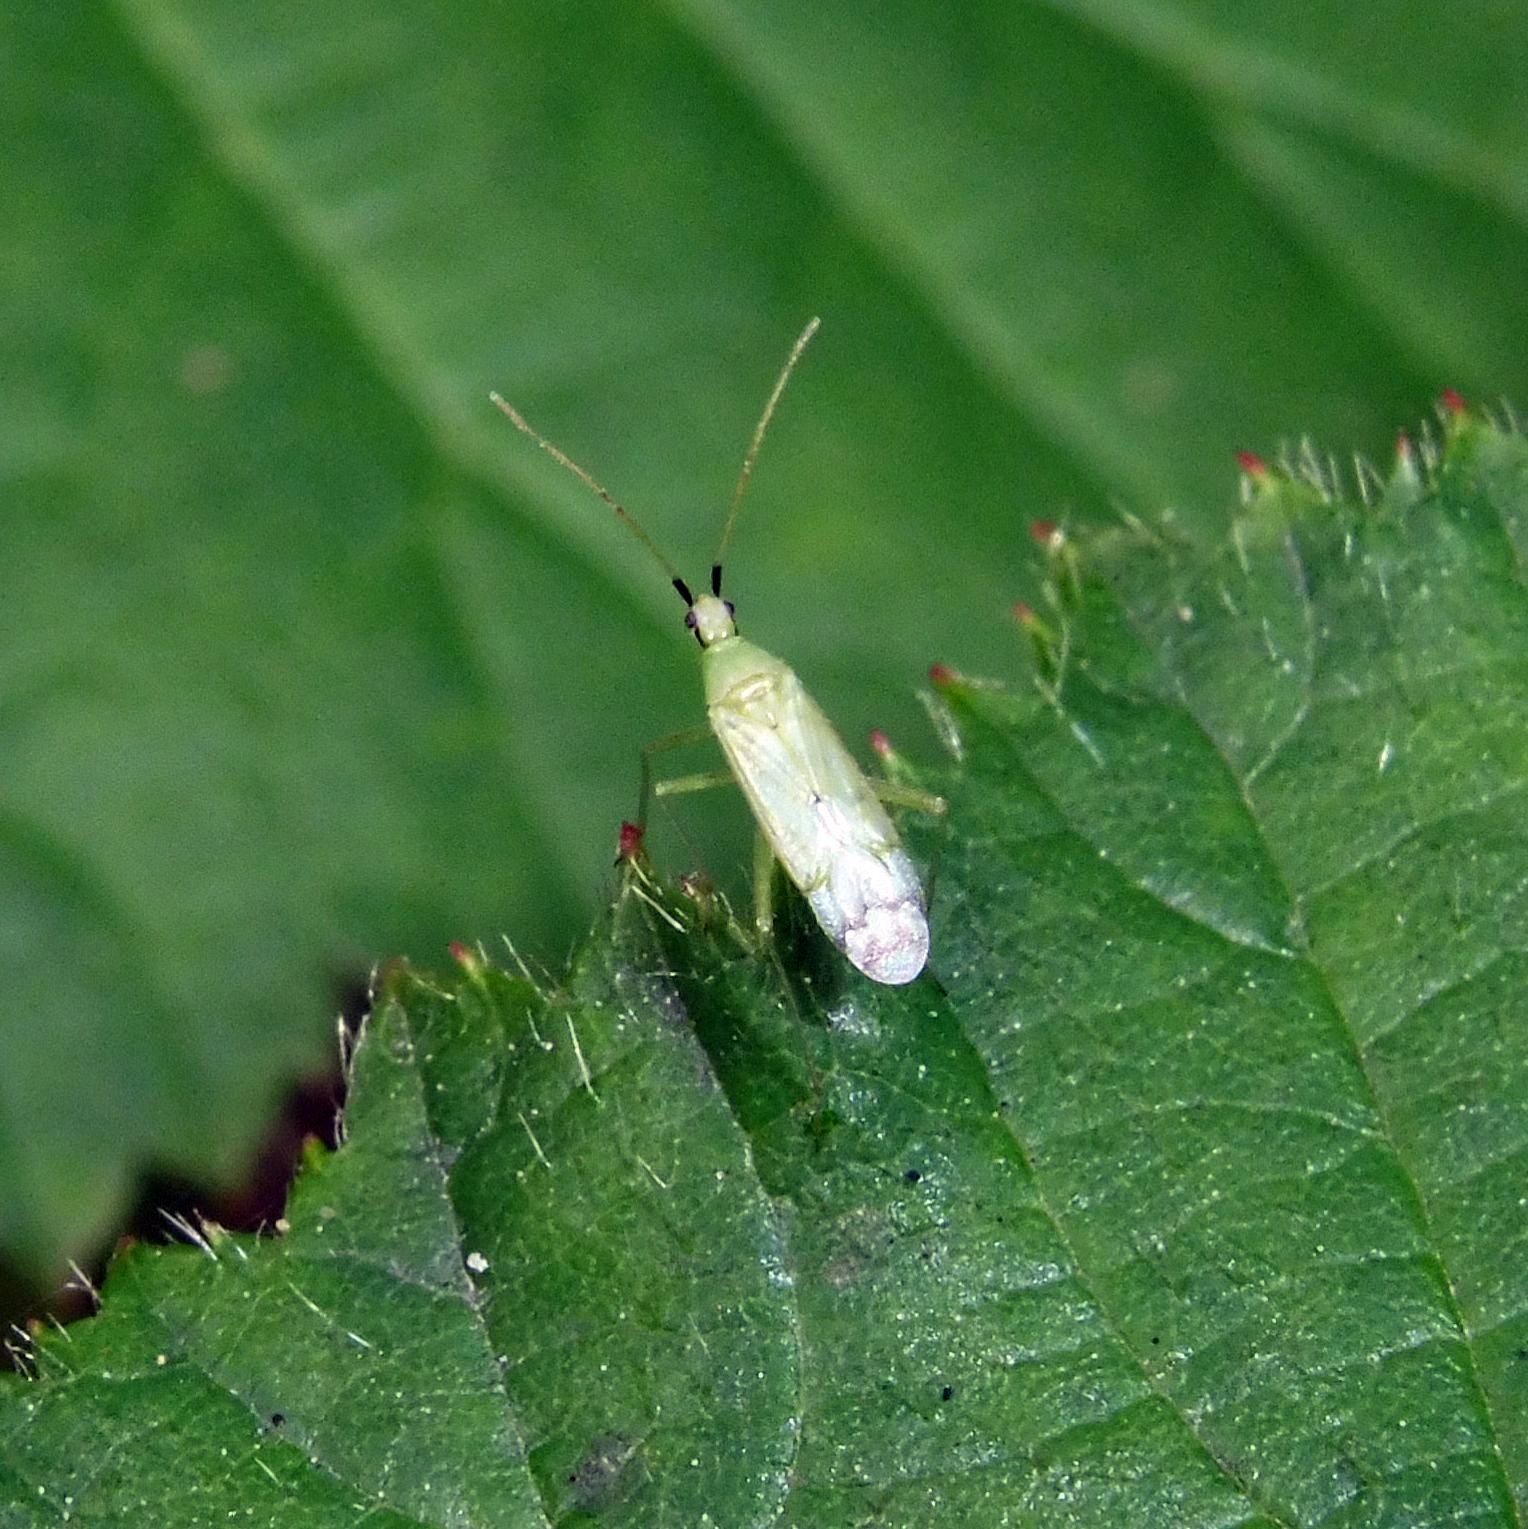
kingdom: Animalia
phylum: Arthropoda
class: Insecta
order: Hemiptera
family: Miridae
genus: Macrolophus
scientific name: Macrolophus costalis
